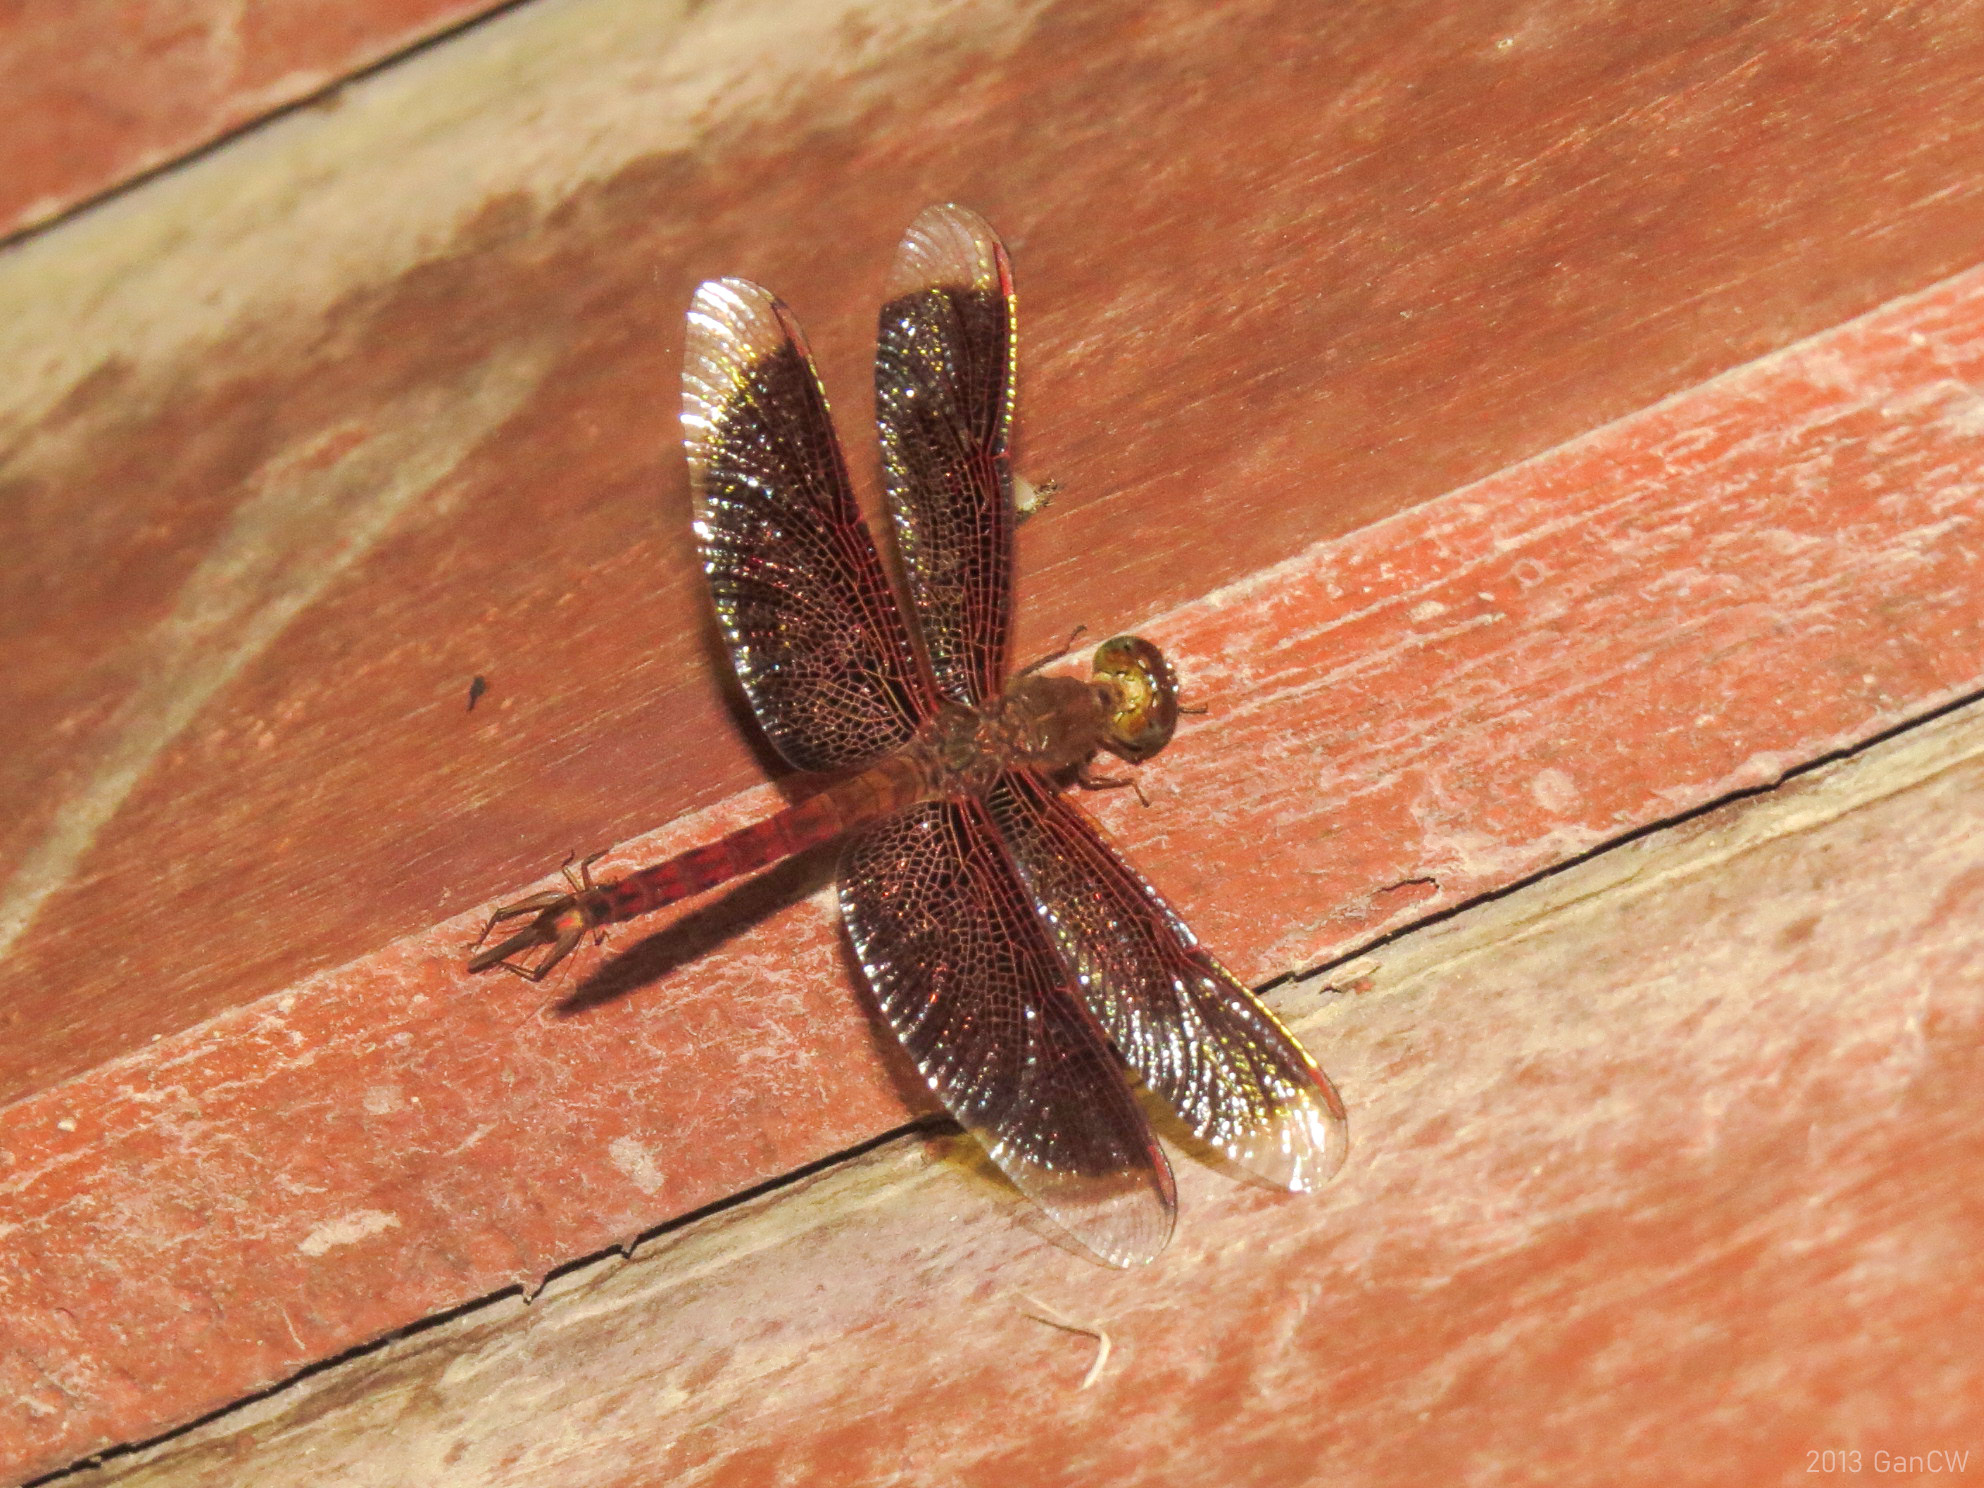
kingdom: Animalia
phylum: Arthropoda
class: Insecta
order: Odonata
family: Libellulidae
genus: Neurothemis
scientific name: Neurothemis fluctuans
